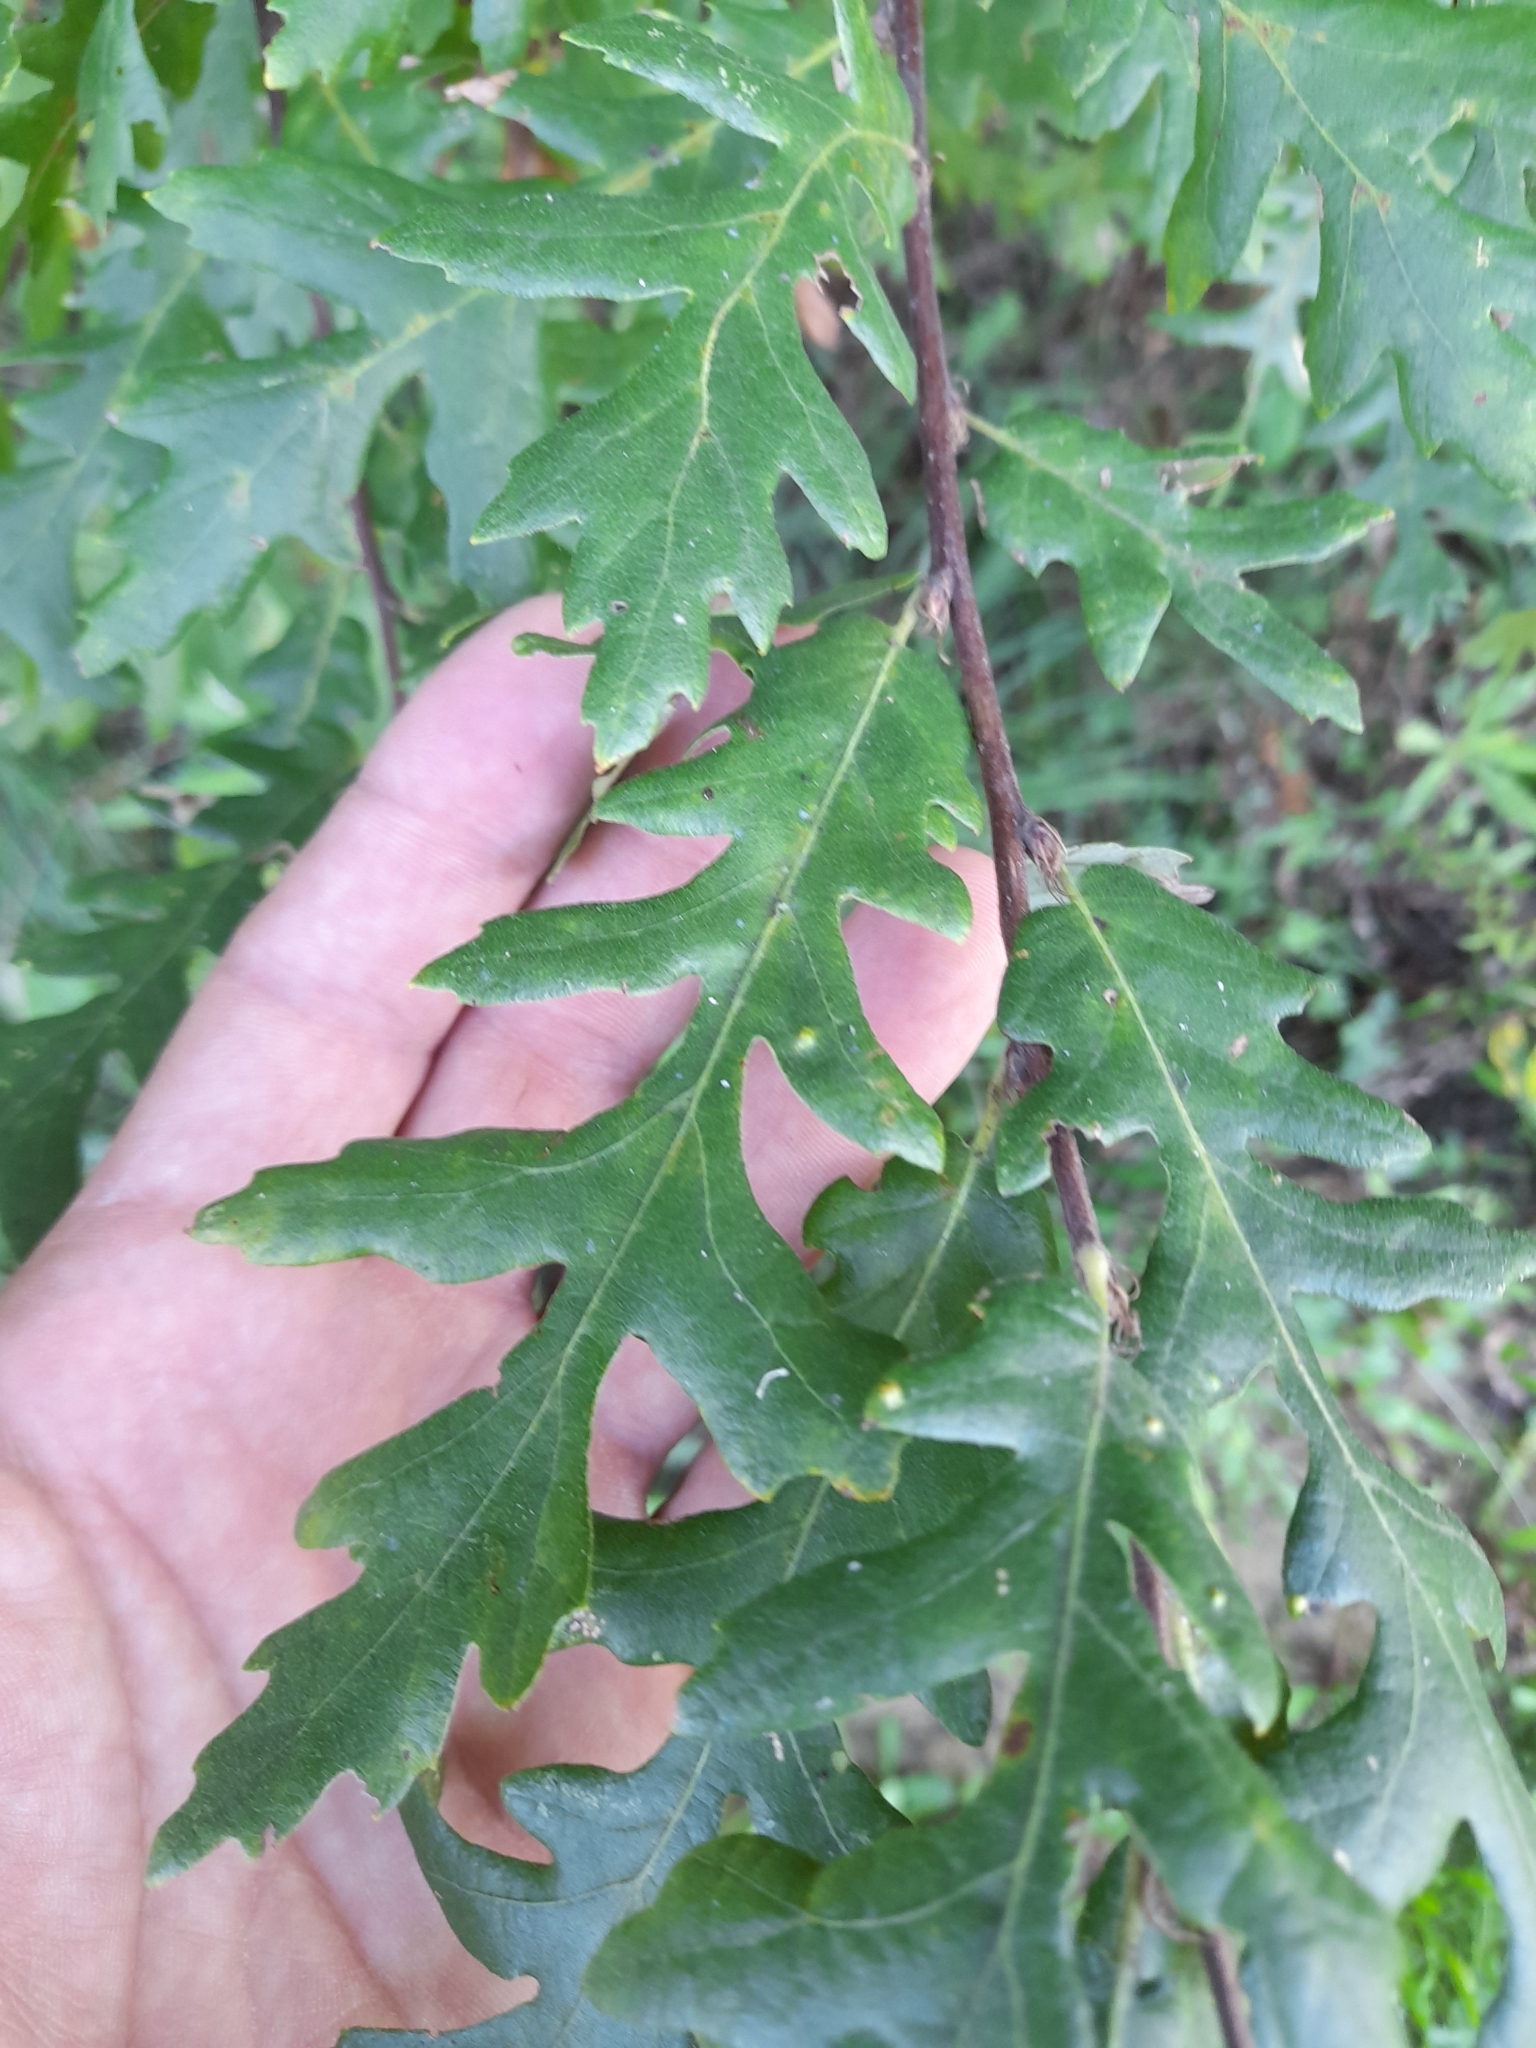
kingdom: Plantae
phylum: Tracheophyta
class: Magnoliopsida
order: Fagales
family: Fagaceae
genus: Quercus
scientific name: Quercus cerris
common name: Turkey oak
